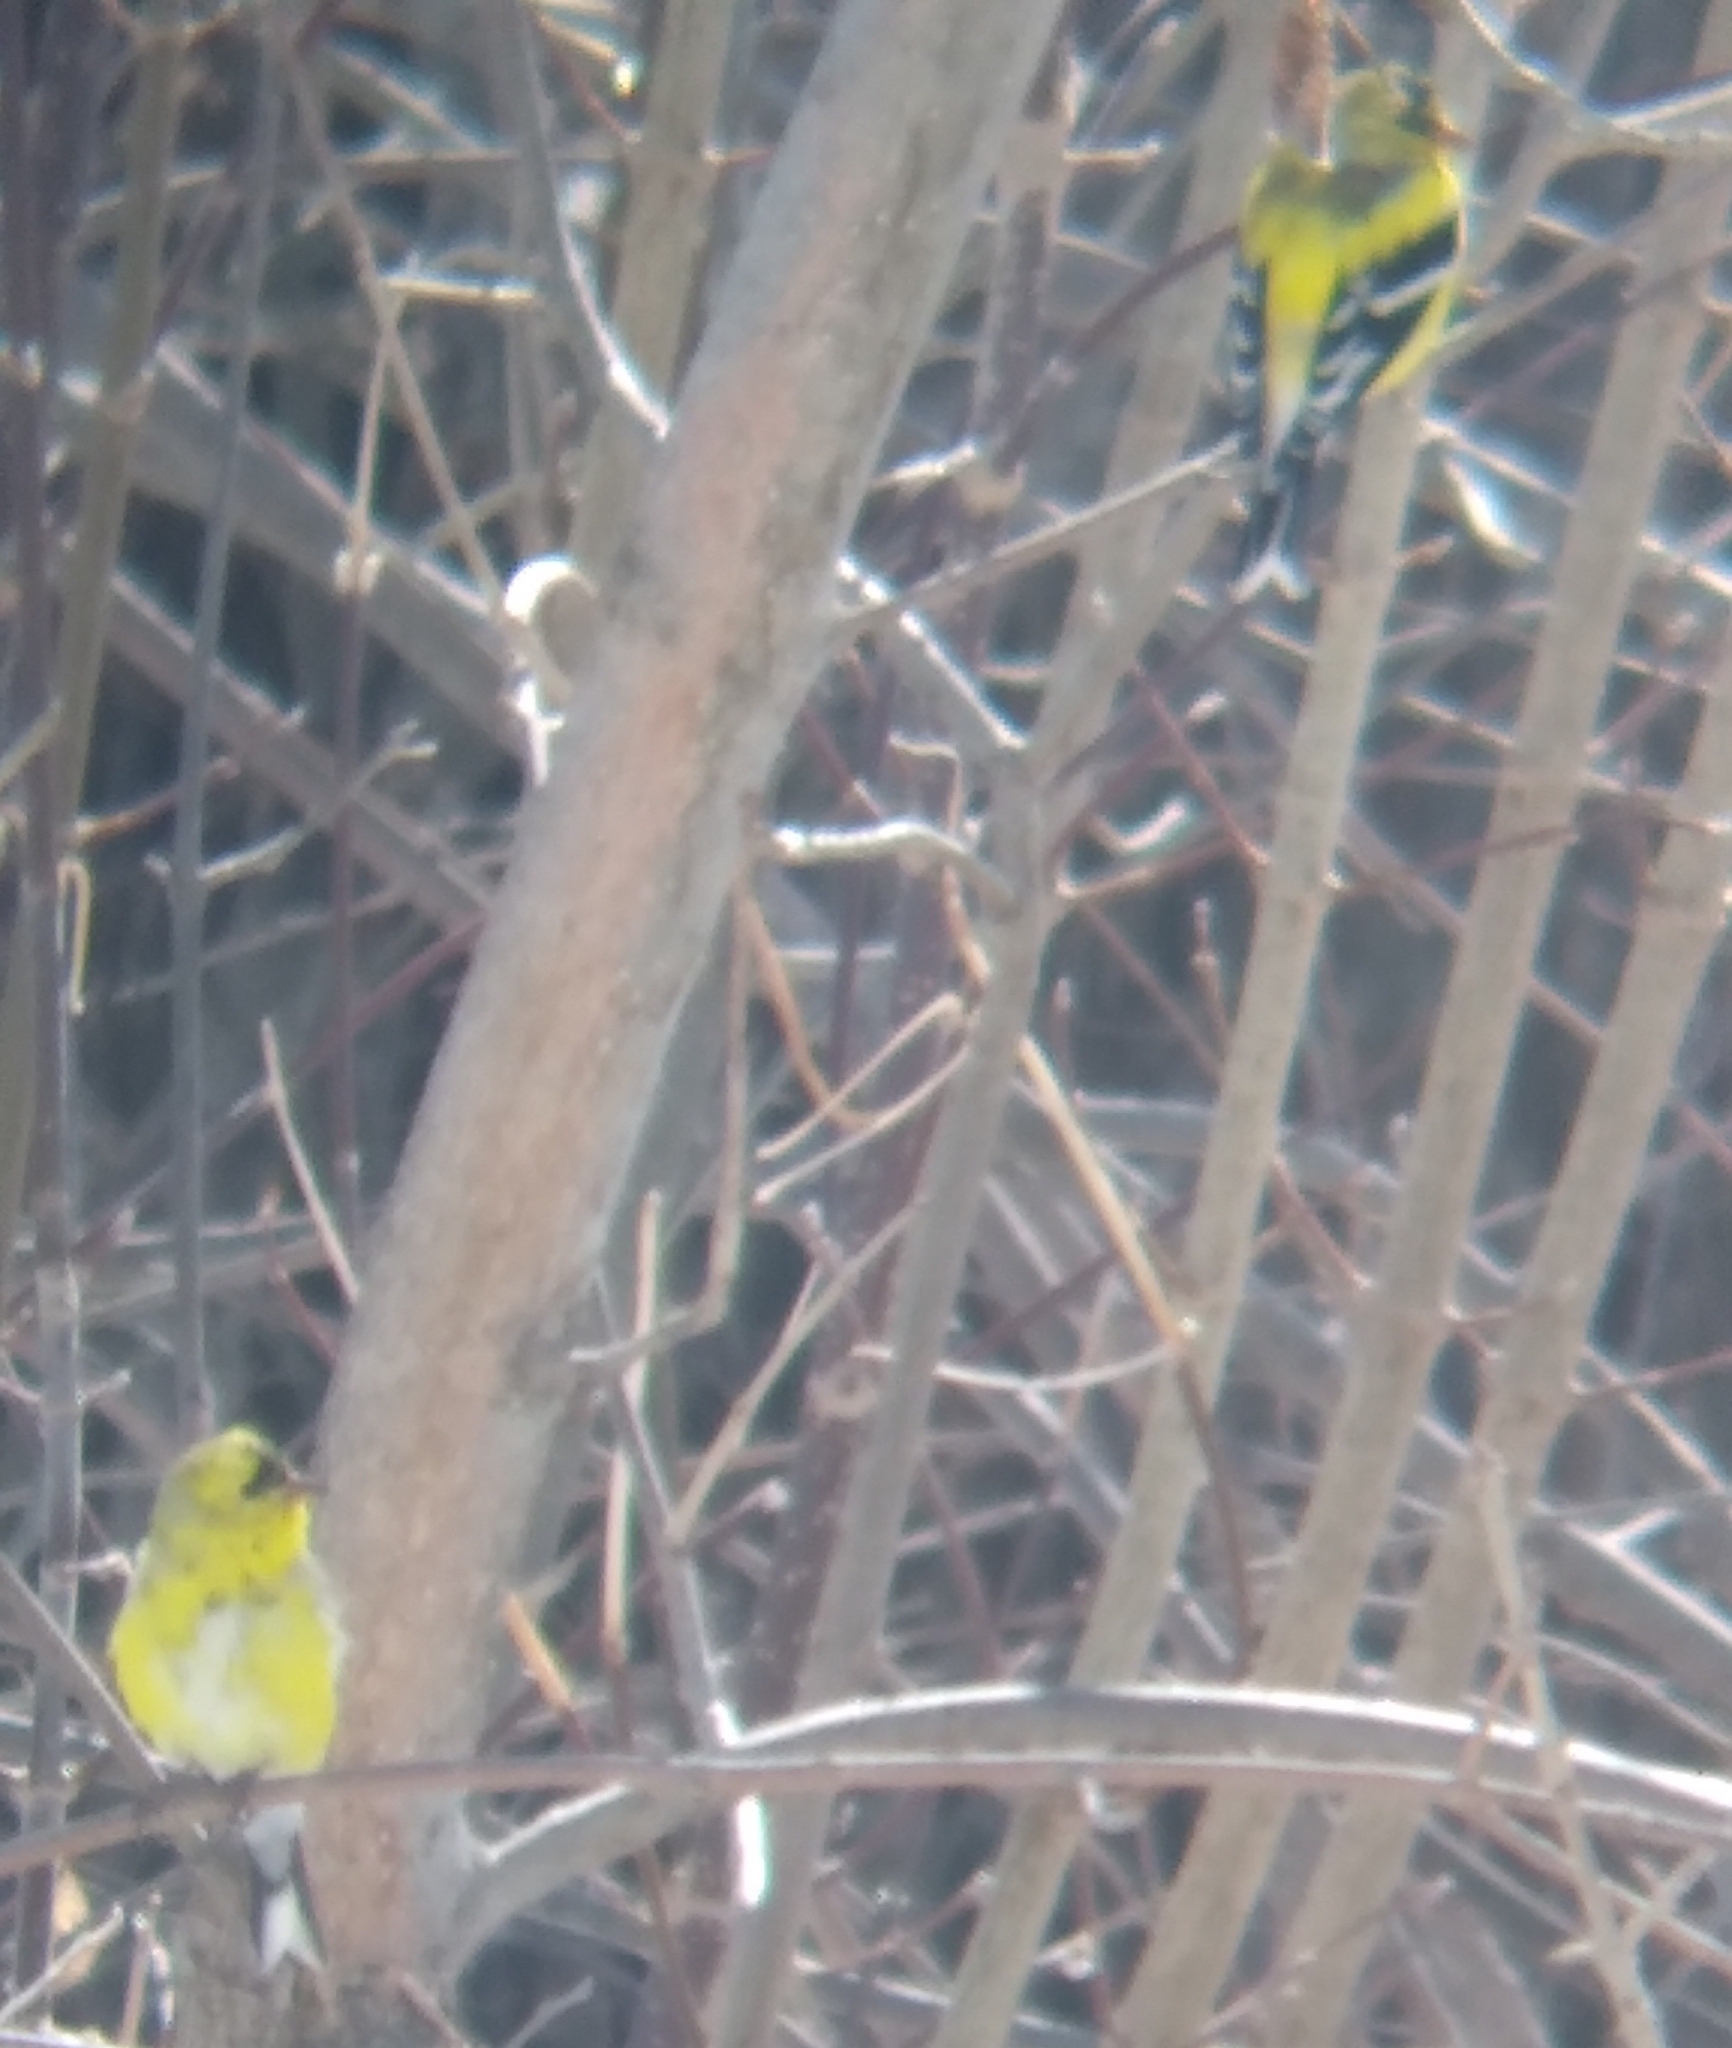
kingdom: Animalia
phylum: Chordata
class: Aves
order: Passeriformes
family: Fringillidae
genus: Spinus
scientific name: Spinus tristis
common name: American goldfinch
